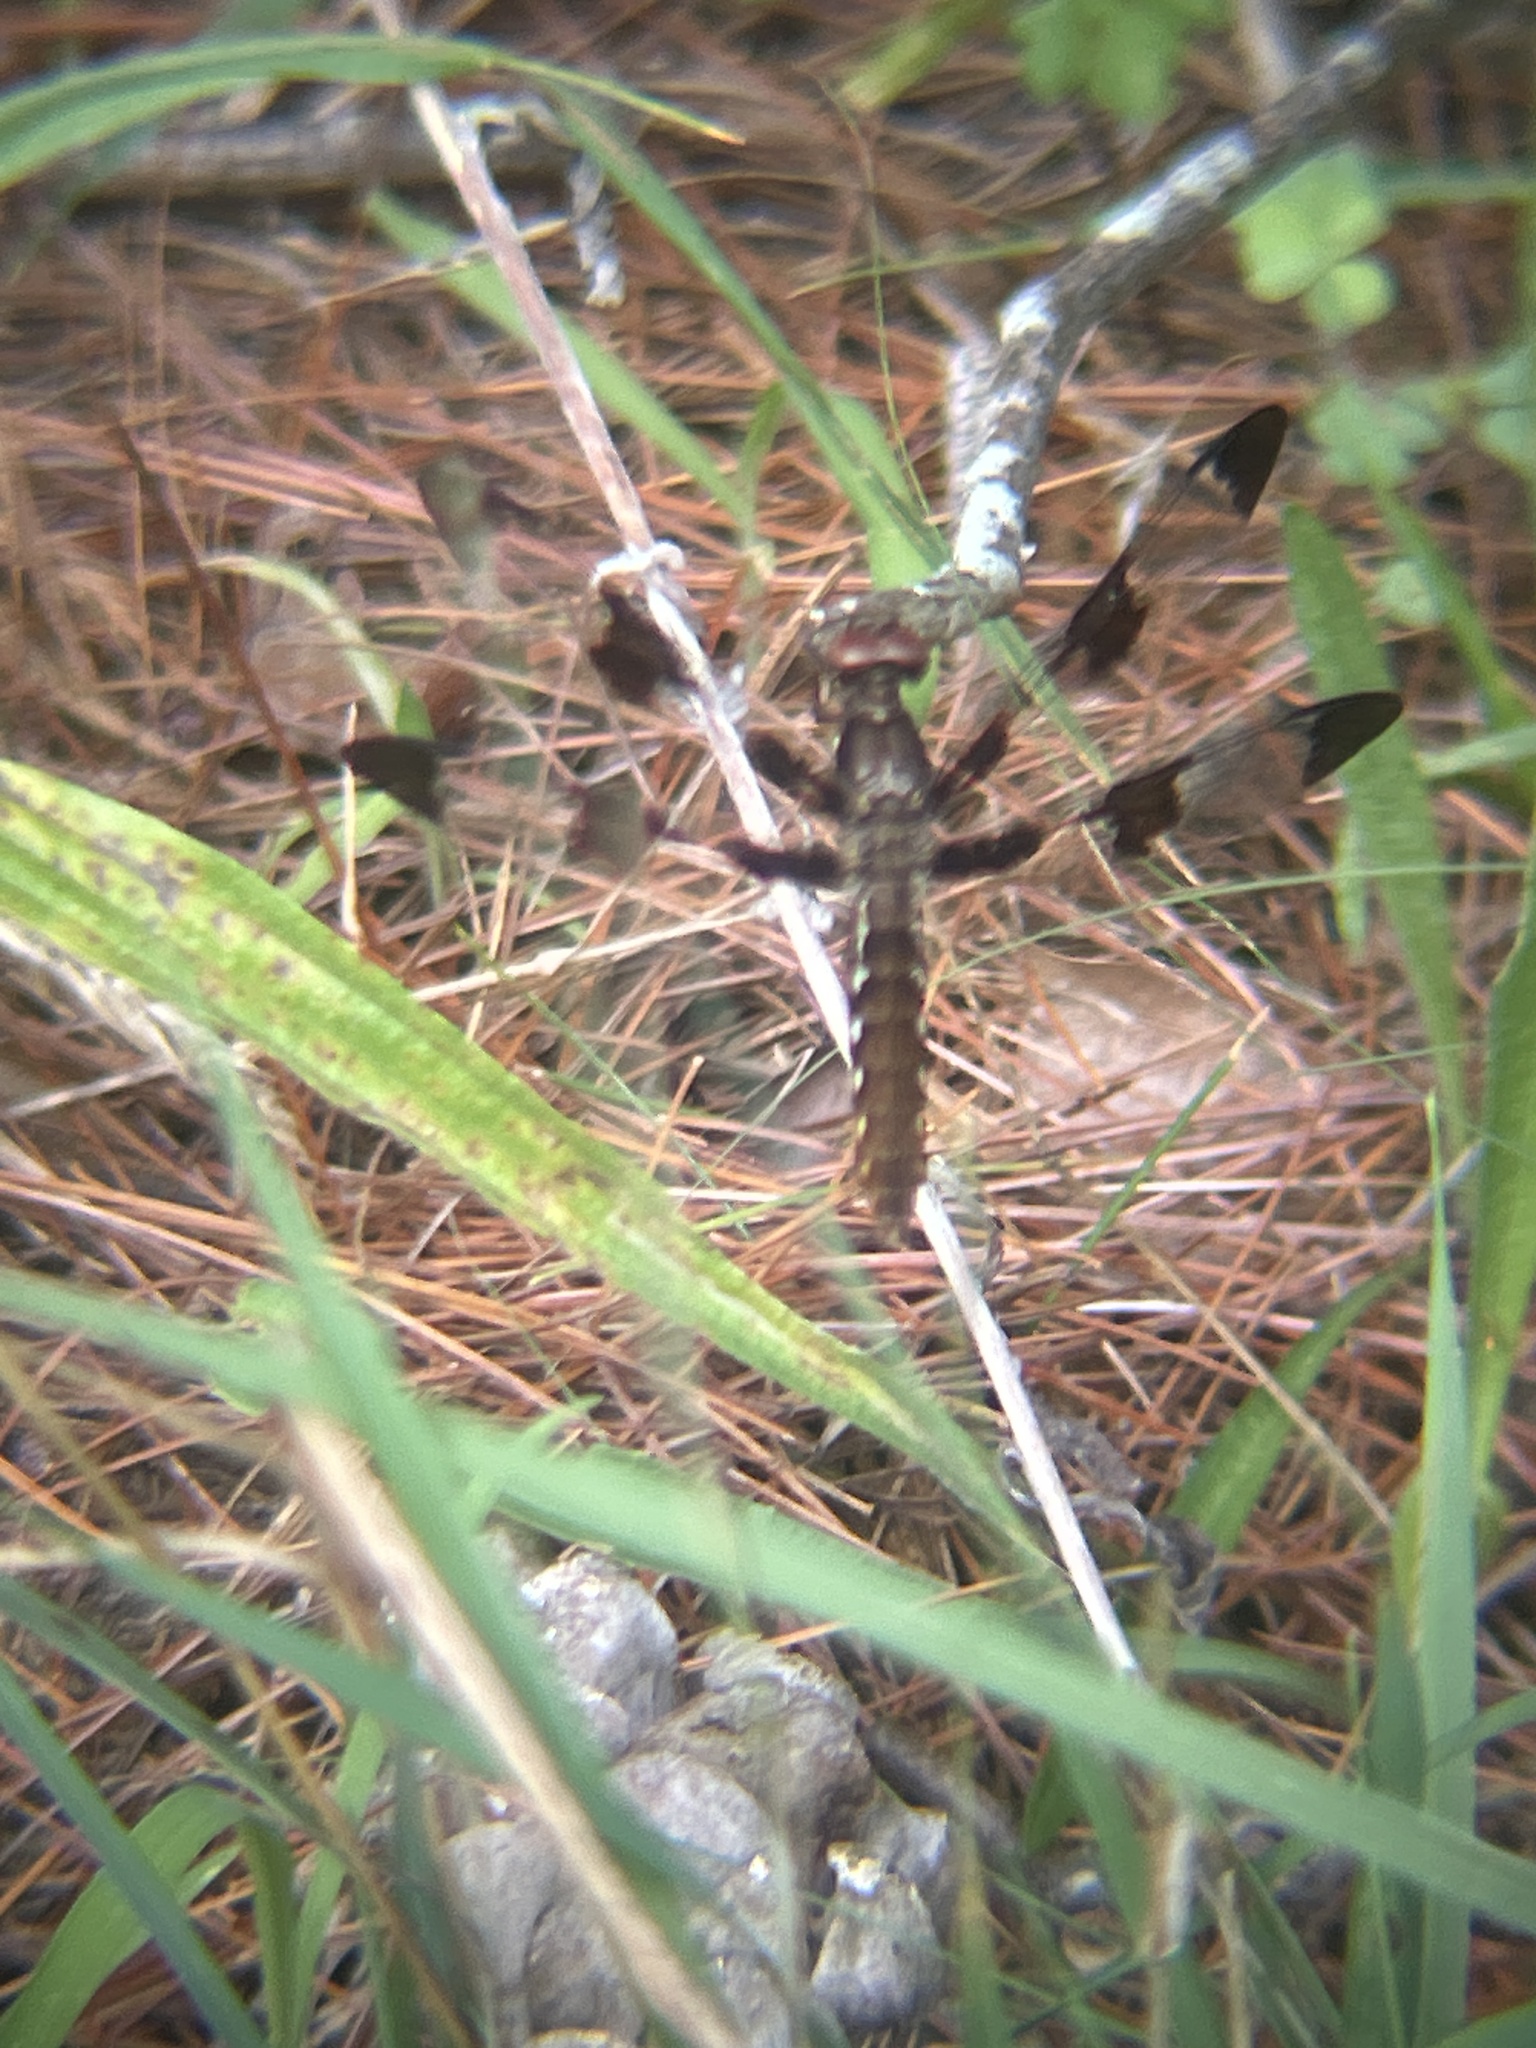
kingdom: Animalia
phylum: Arthropoda
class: Insecta
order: Odonata
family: Libellulidae
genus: Plathemis
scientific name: Plathemis lydia
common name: Common whitetail
